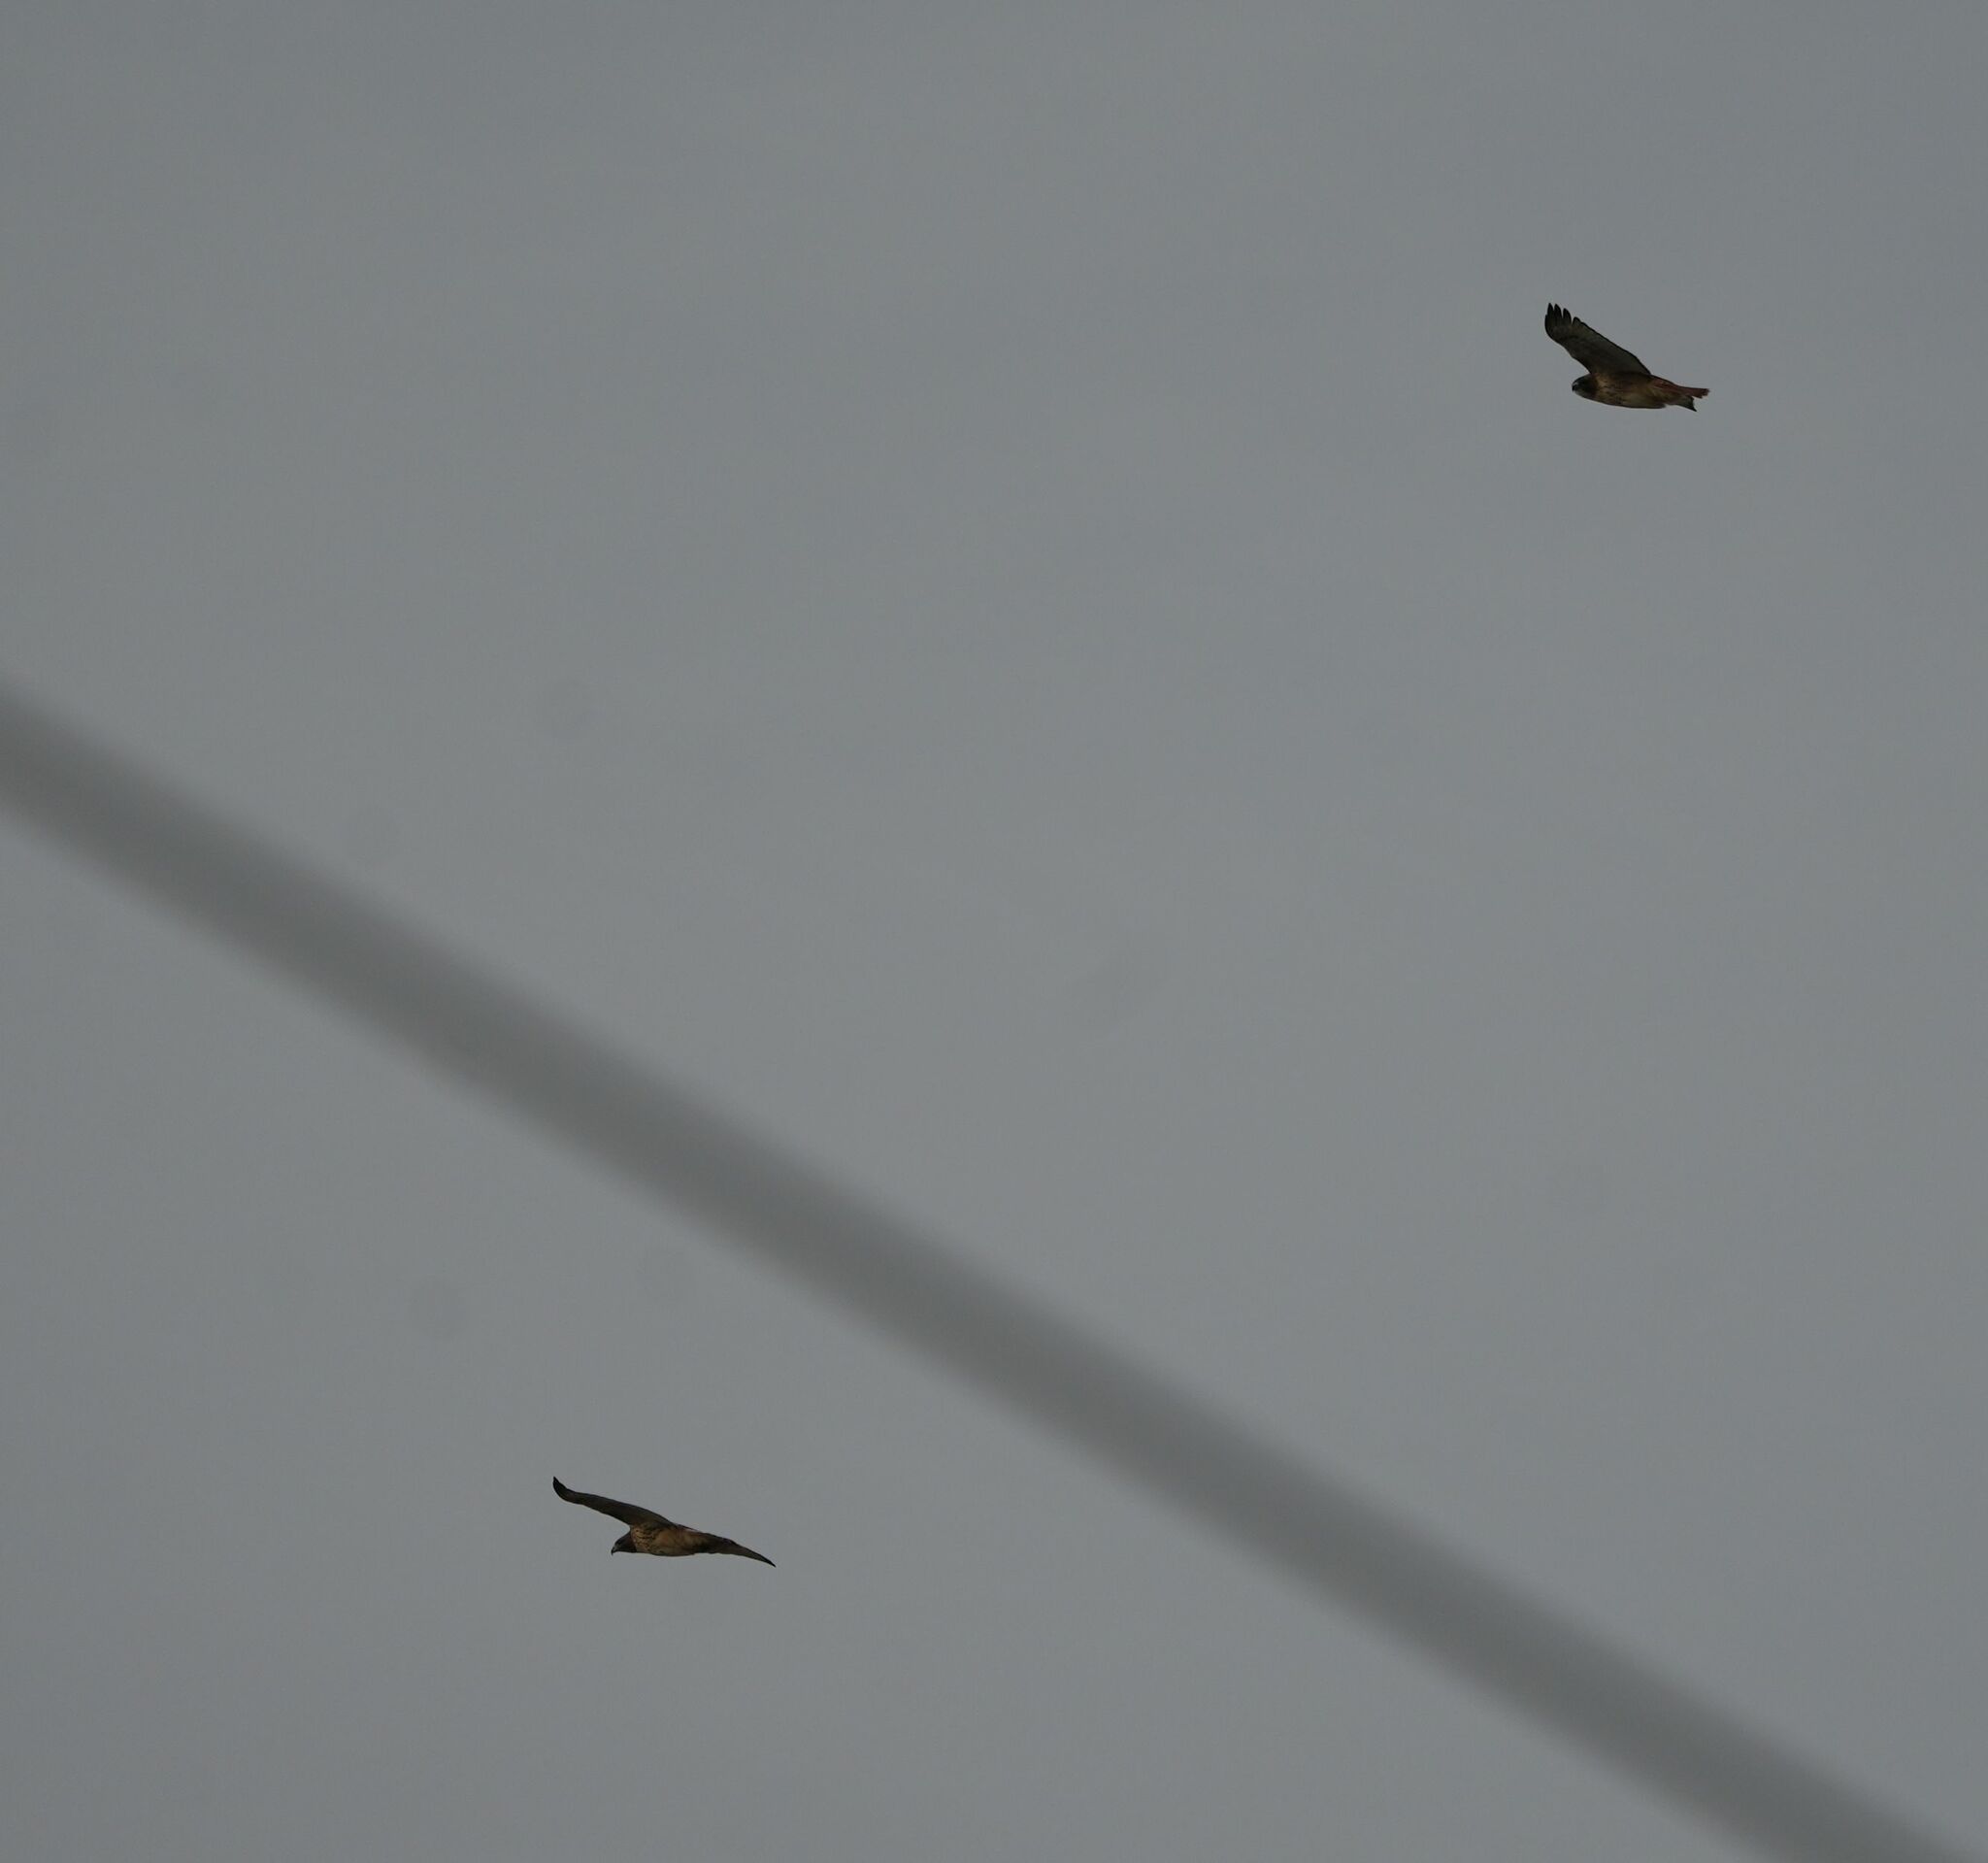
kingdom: Animalia
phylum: Chordata
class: Aves
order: Accipitriformes
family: Accipitridae
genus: Buteo
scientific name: Buteo jamaicensis
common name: Red-tailed hawk
